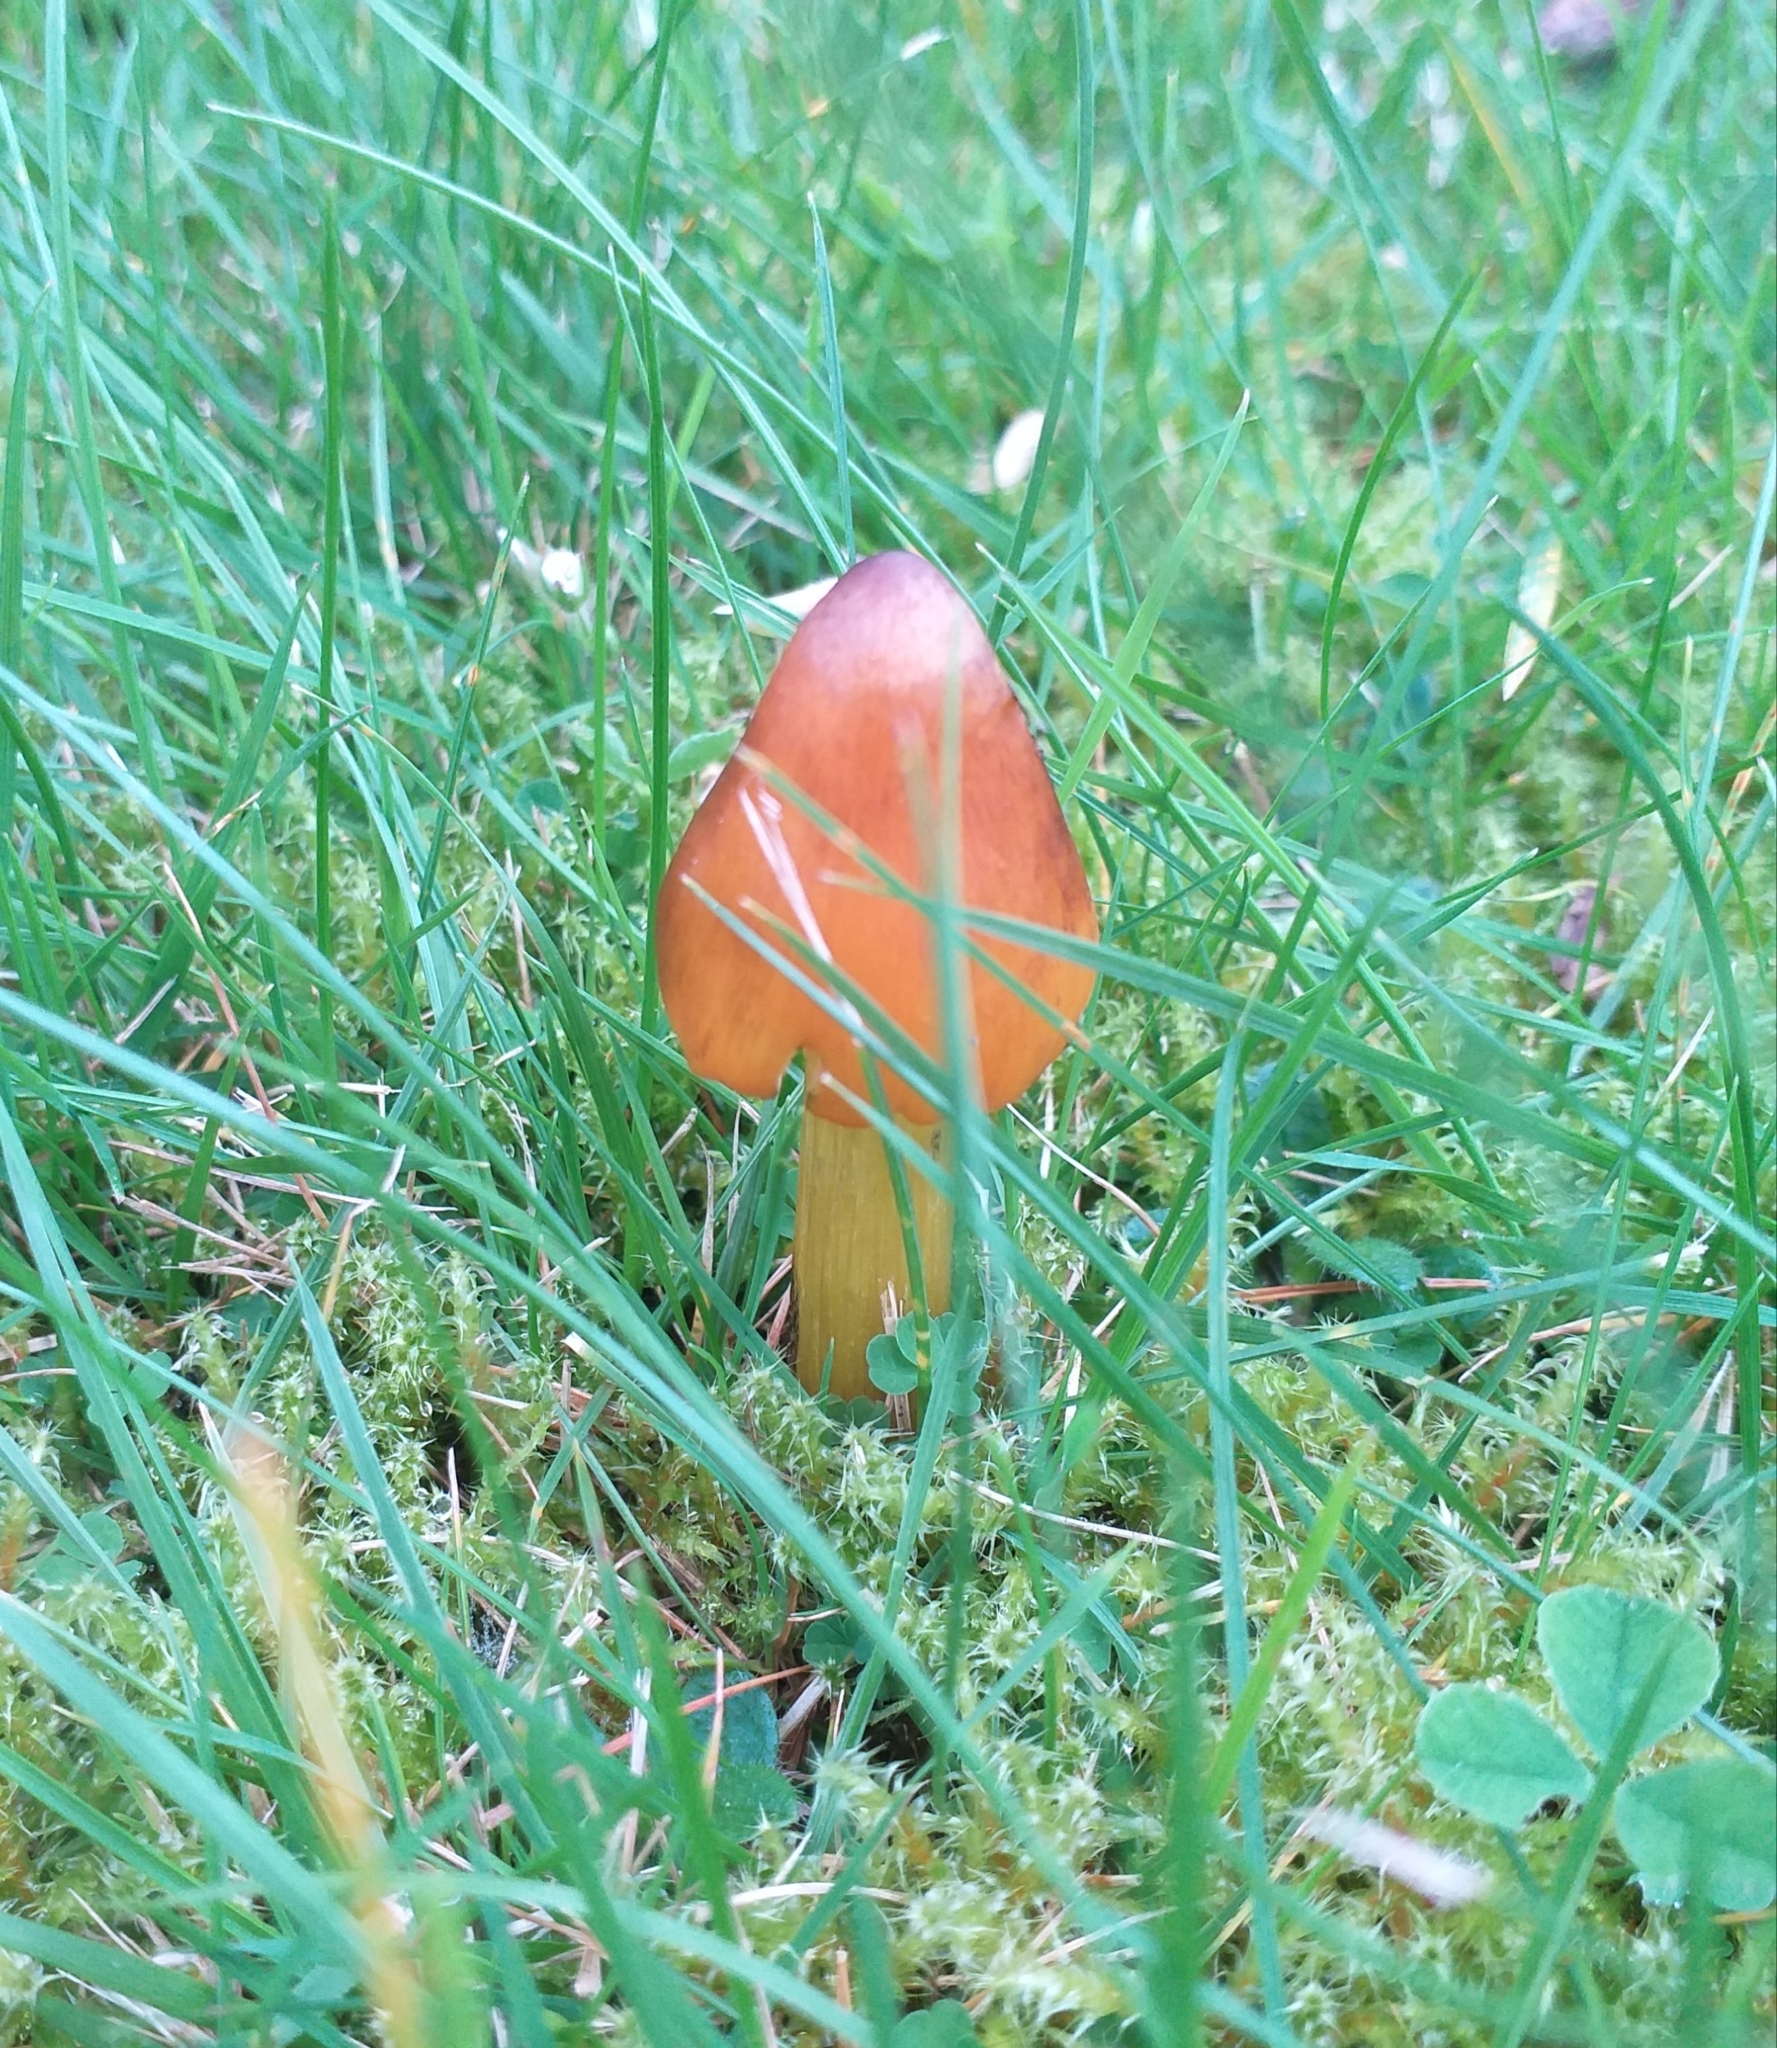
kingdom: Fungi
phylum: Basidiomycota
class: Agaricomycetes
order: Agaricales
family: Hygrophoraceae
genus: Hygrocybe
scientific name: Hygrocybe conica
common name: Blackening wax-cap
